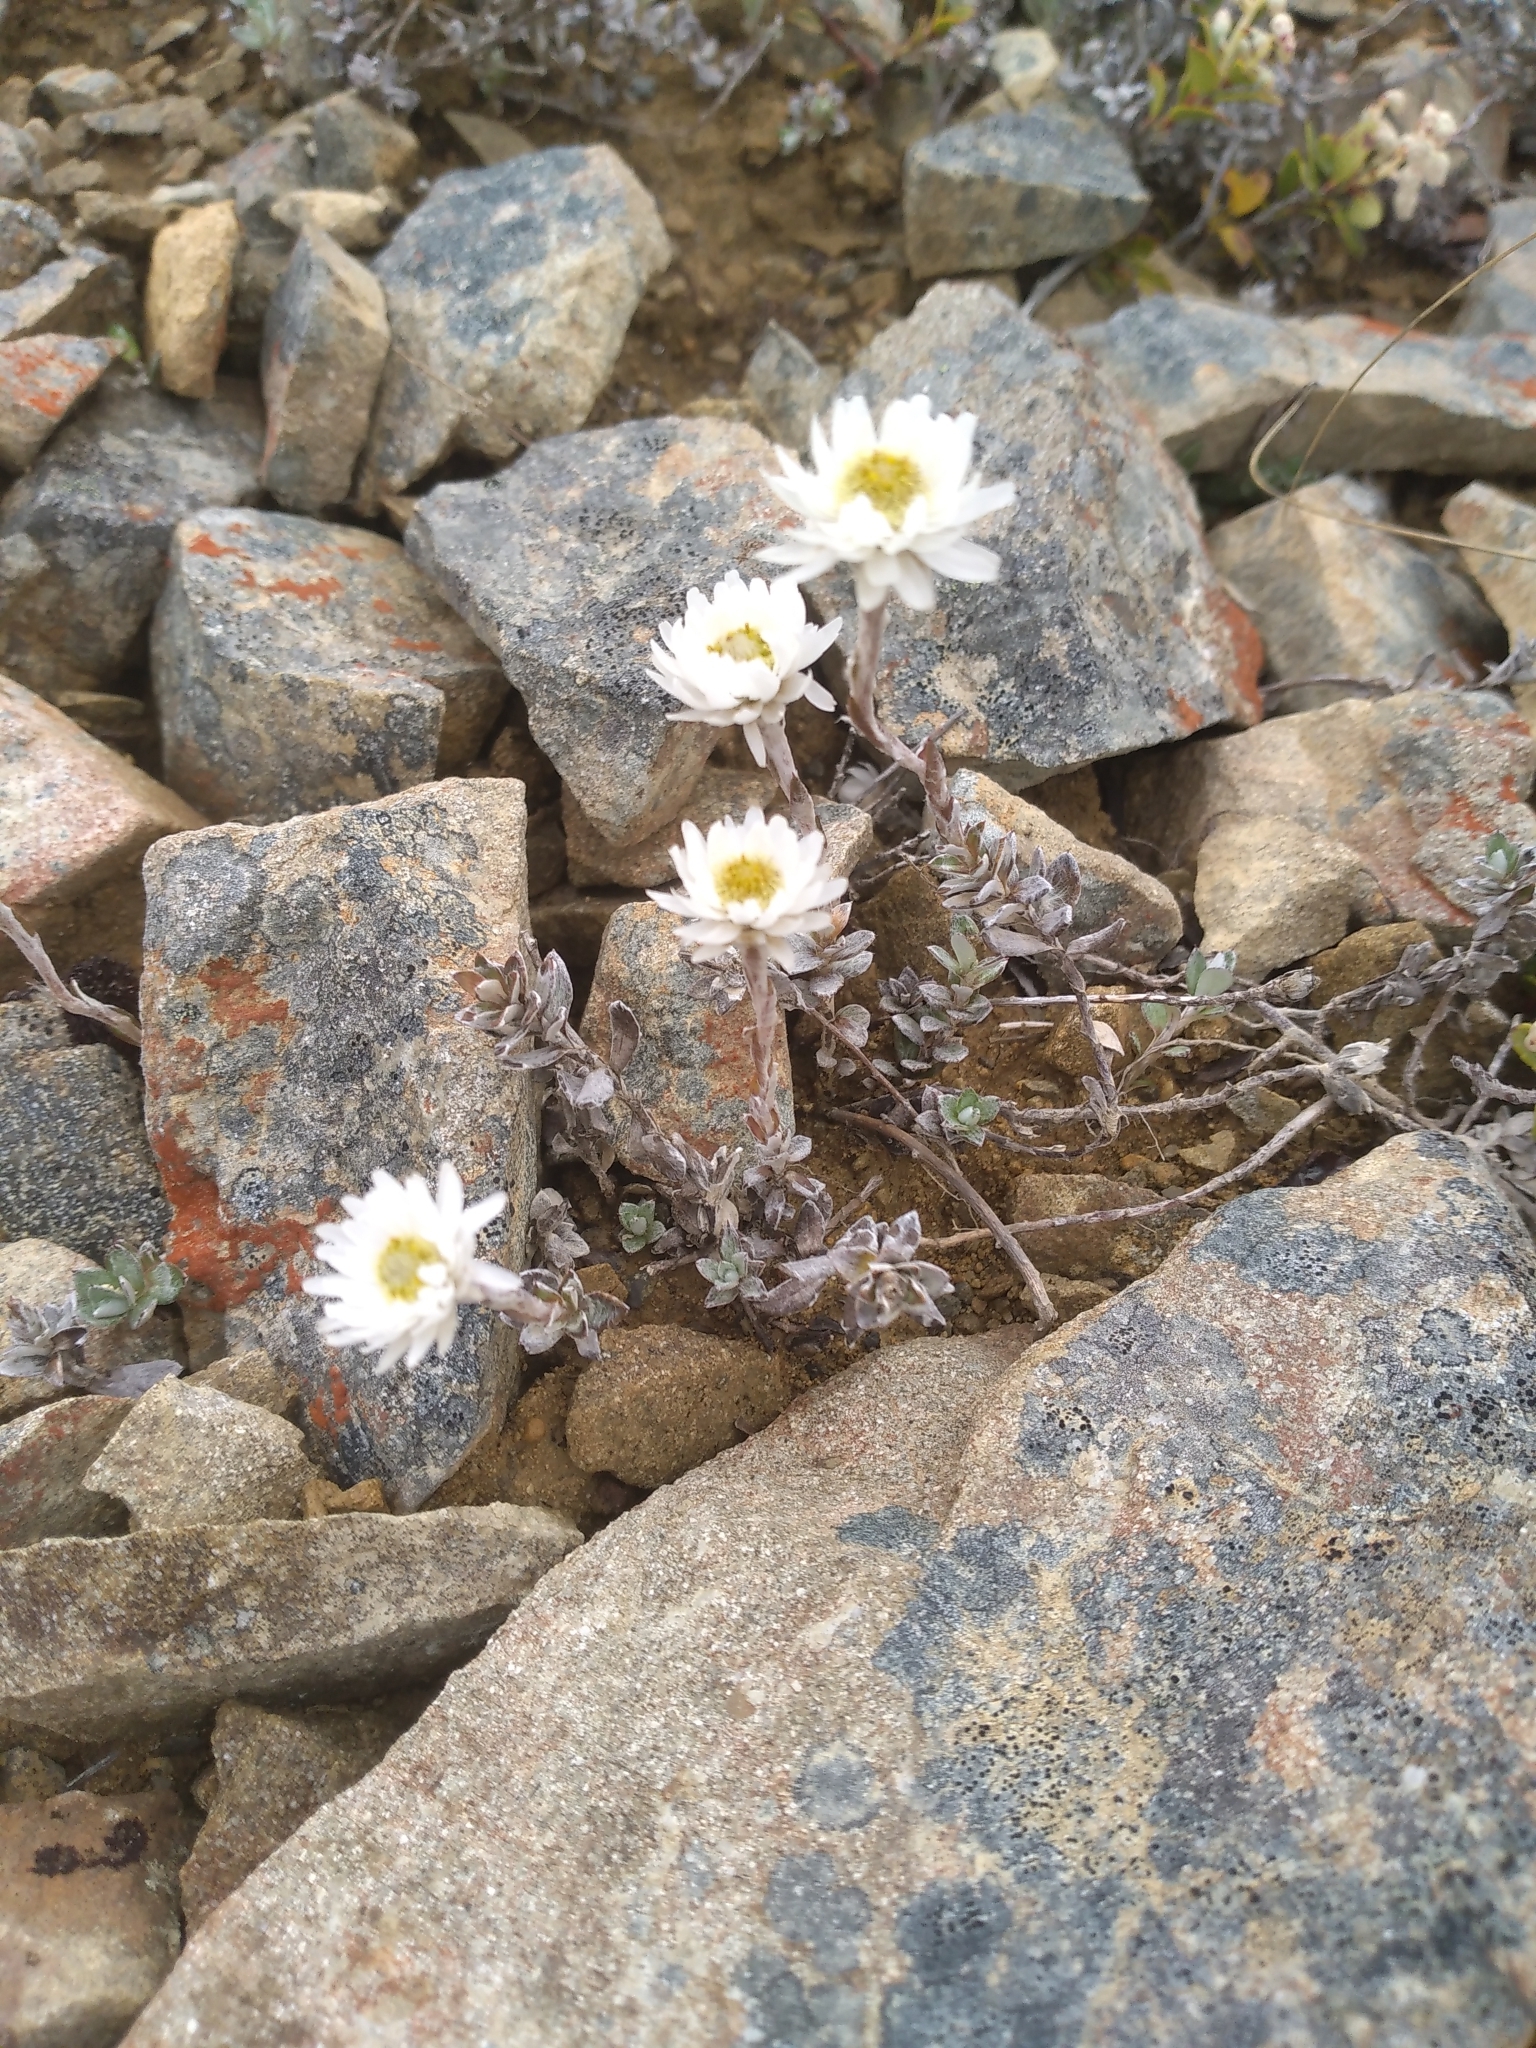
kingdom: Plantae
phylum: Tracheophyta
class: Magnoliopsida
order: Asterales
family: Asteraceae
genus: Anaphalioides
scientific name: Anaphalioides bellidioides
